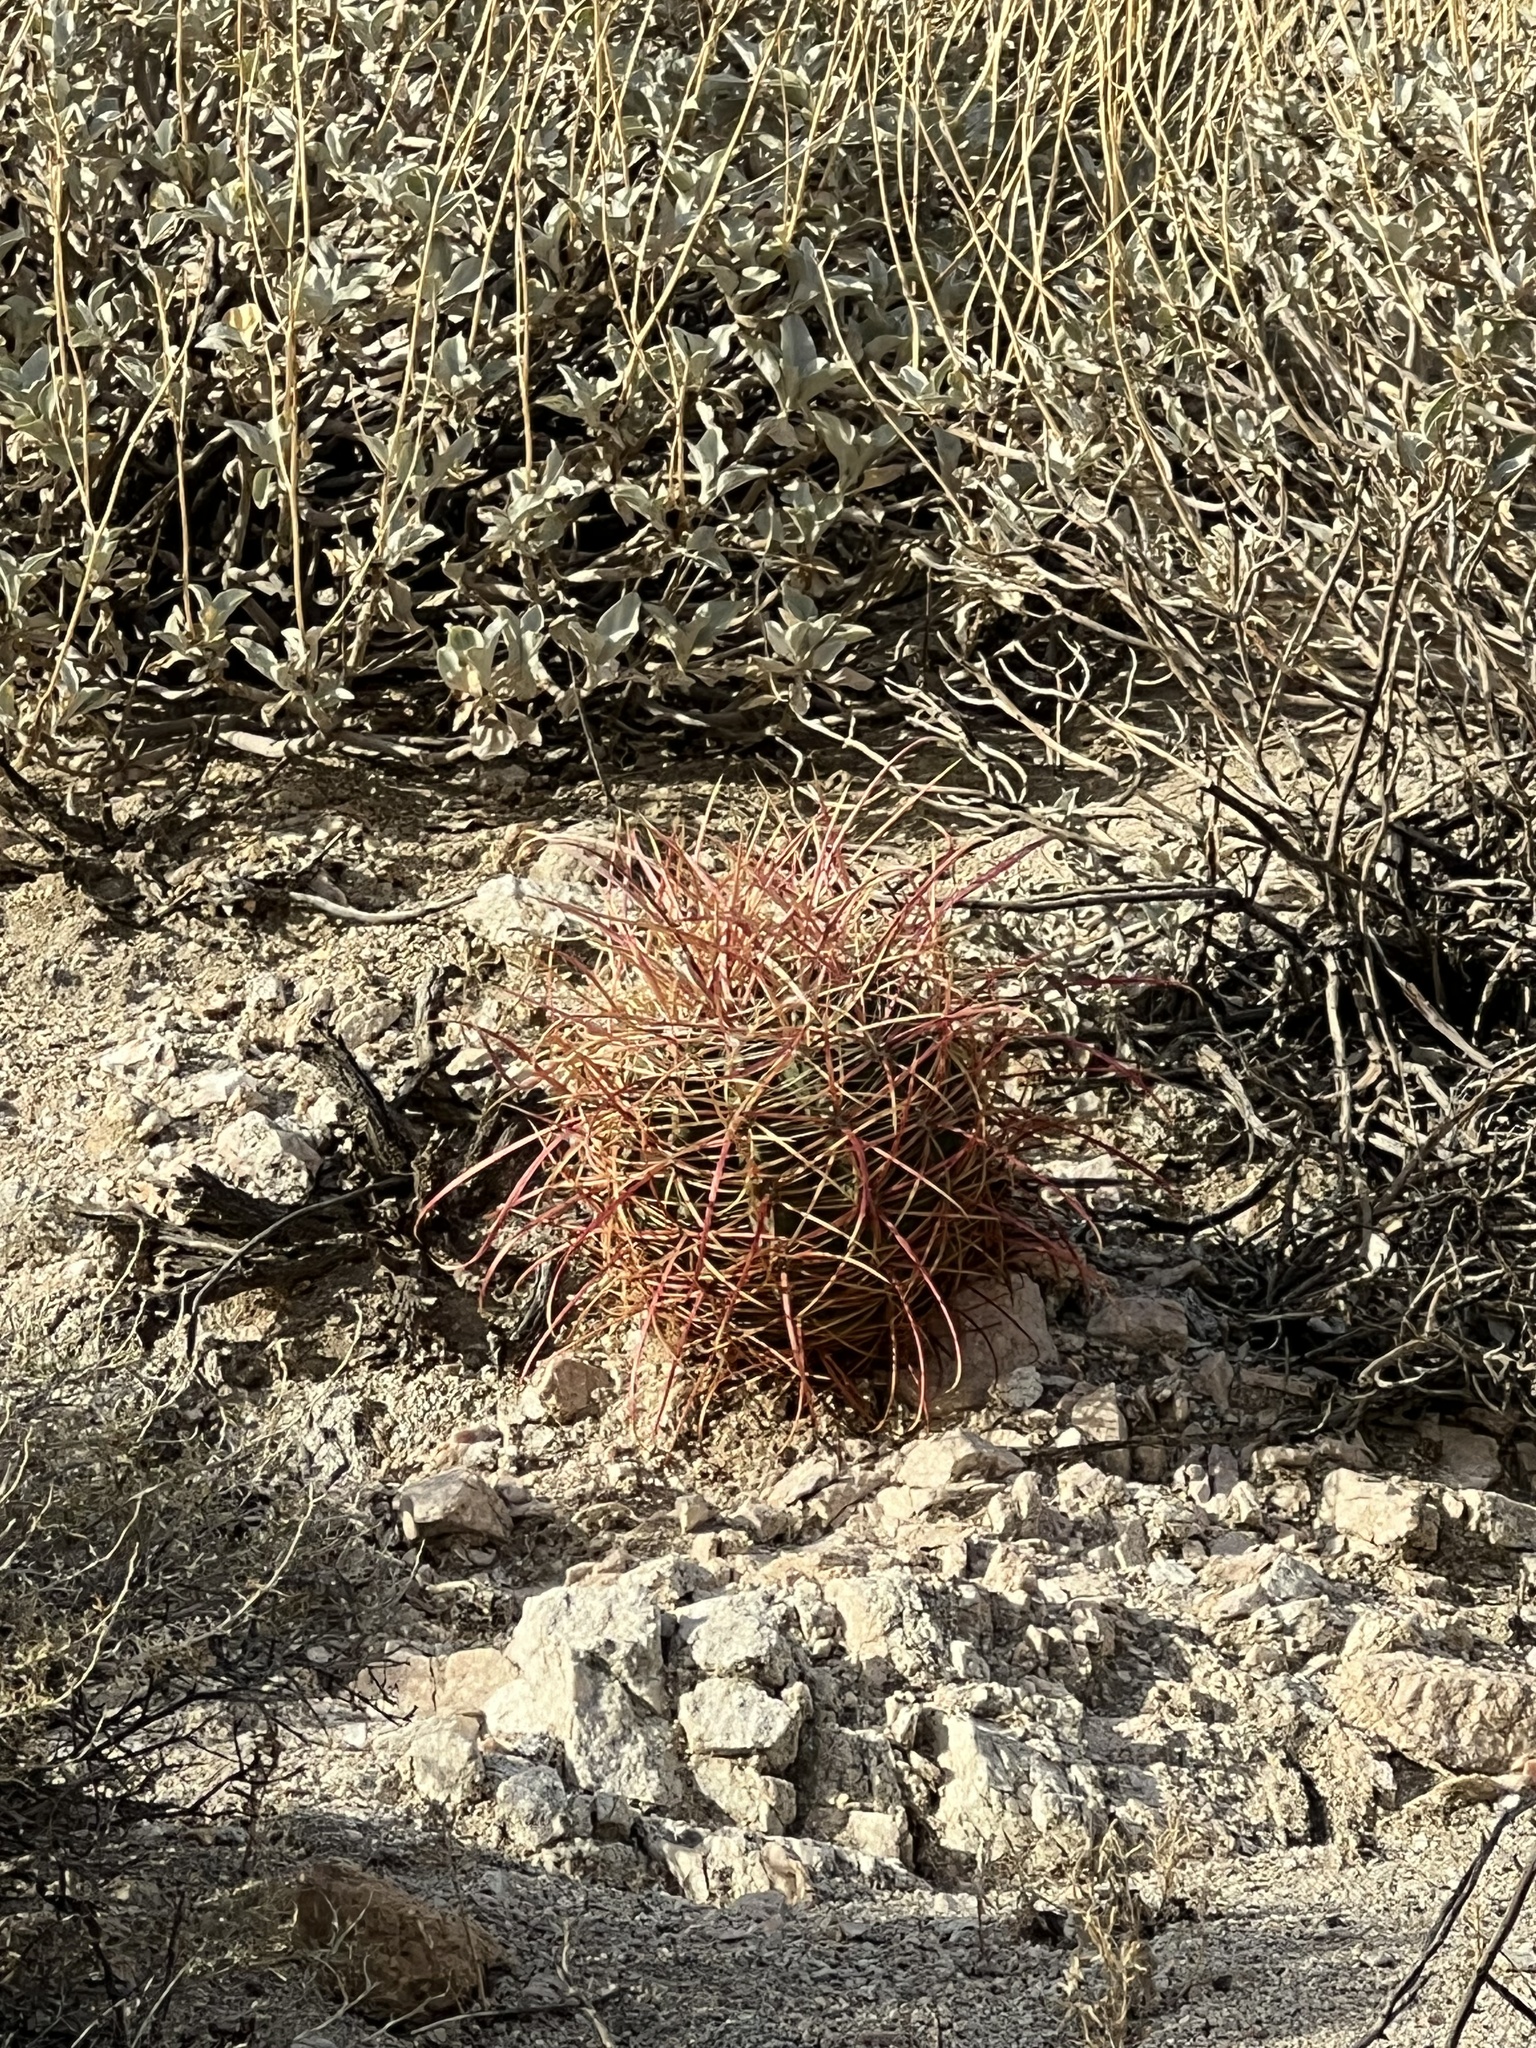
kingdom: Plantae
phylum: Tracheophyta
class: Magnoliopsida
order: Caryophyllales
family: Cactaceae
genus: Ferocactus
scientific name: Ferocactus cylindraceus
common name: California barrel cactus
